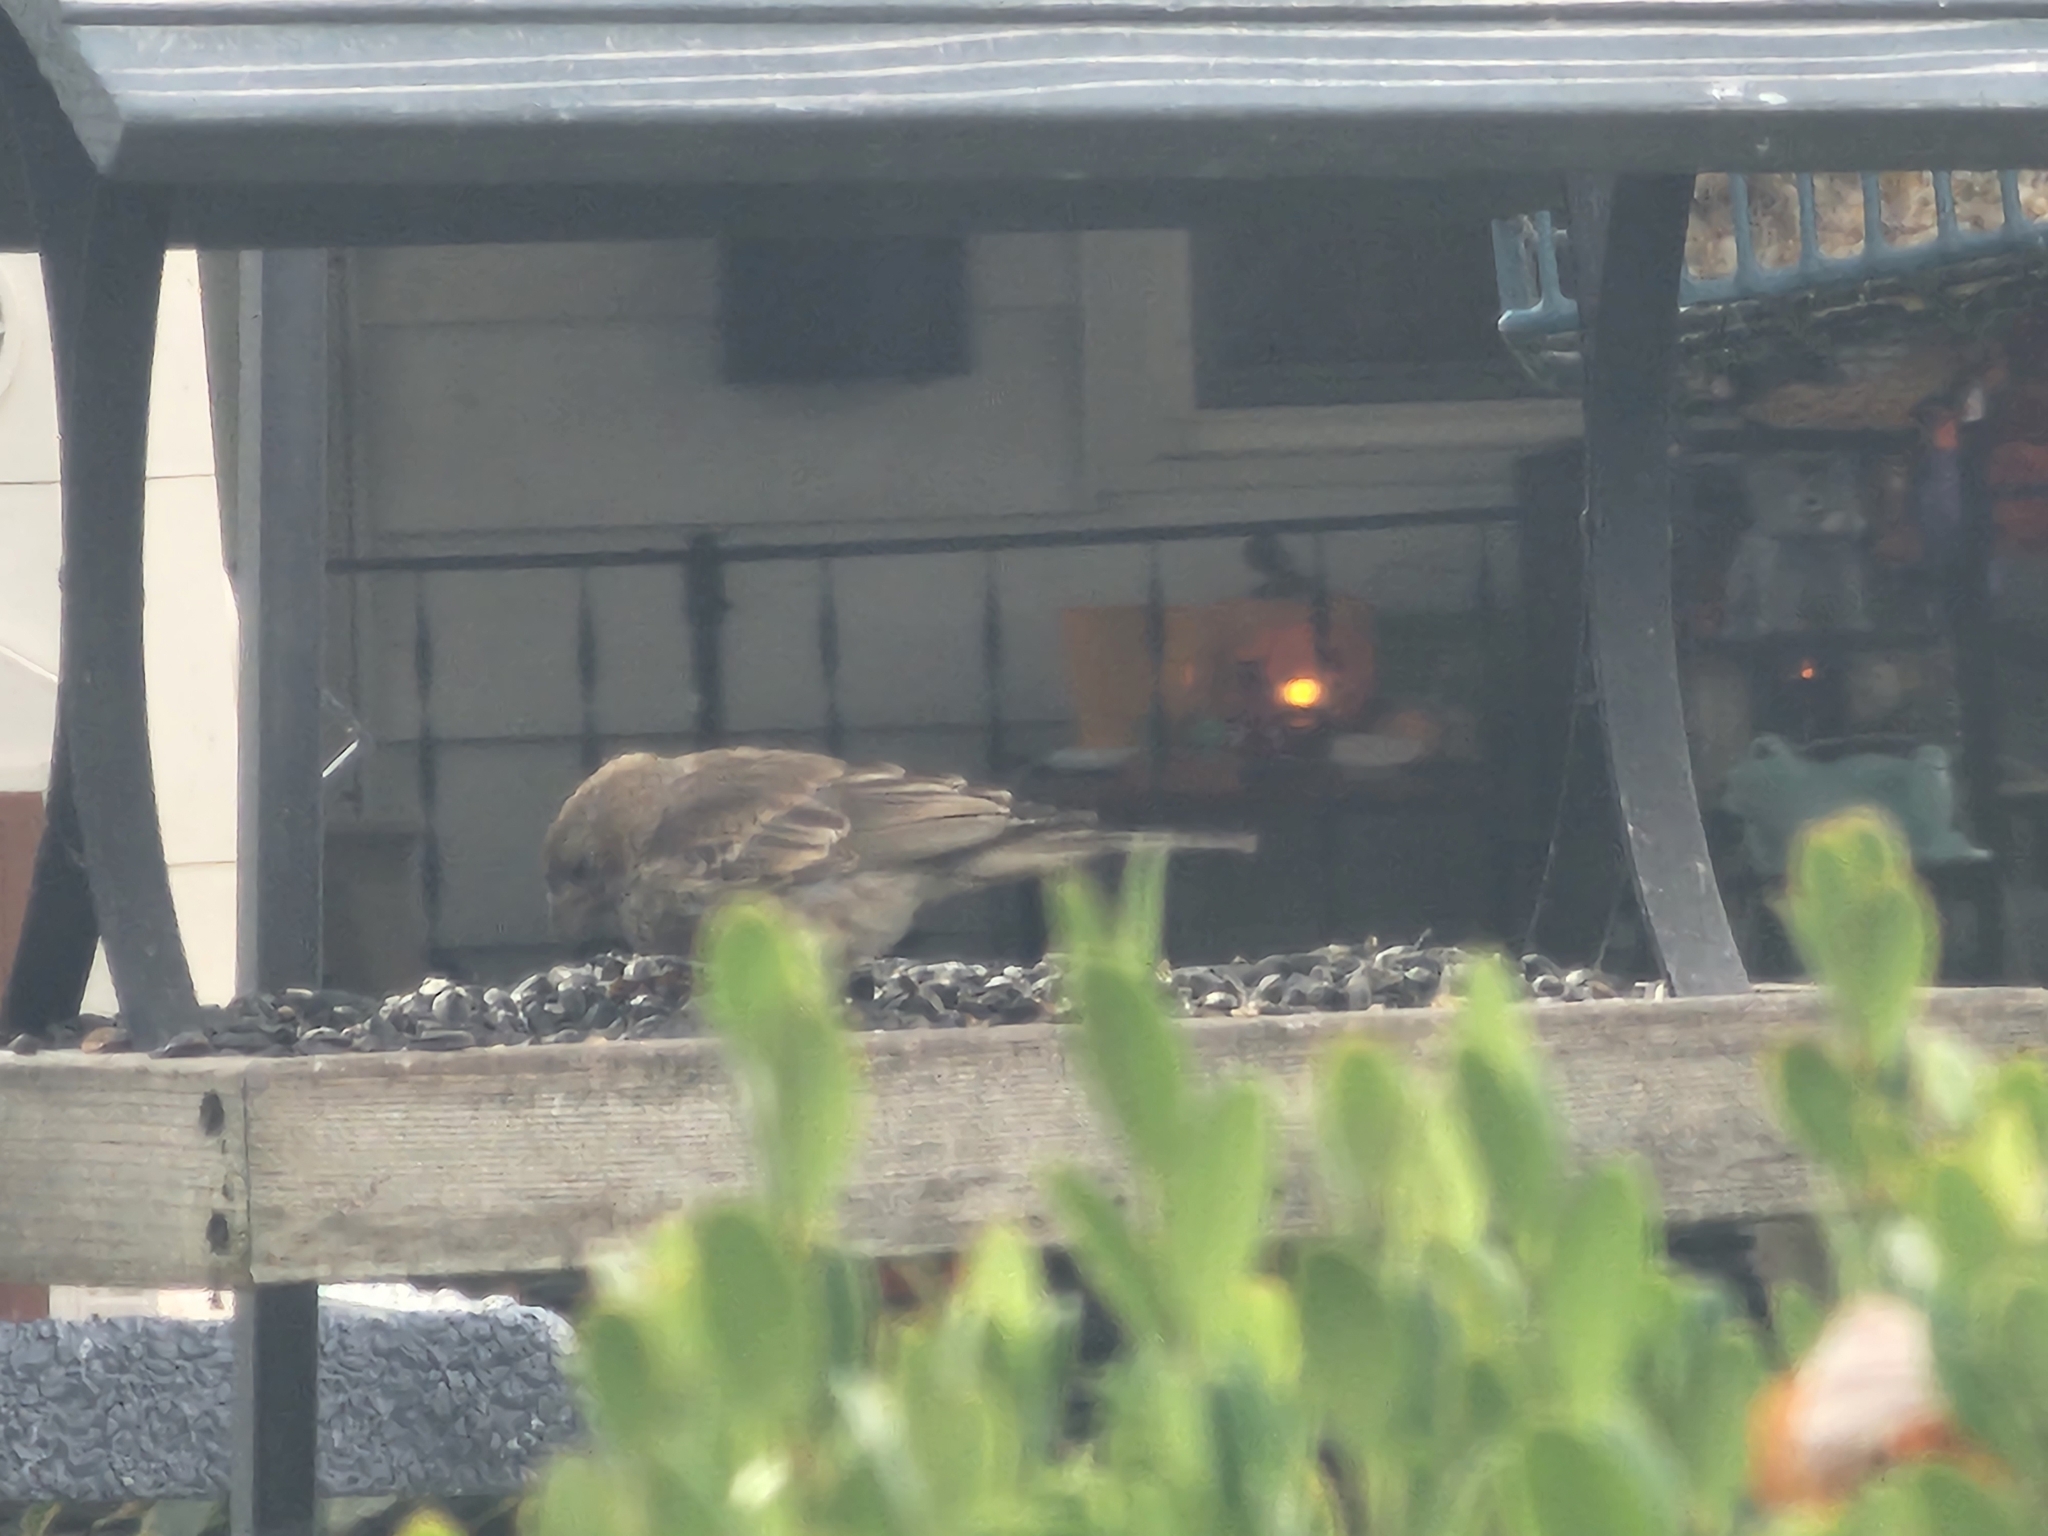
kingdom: Animalia
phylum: Chordata
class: Aves
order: Passeriformes
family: Fringillidae
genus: Haemorhous
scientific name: Haemorhous mexicanus
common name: House finch
